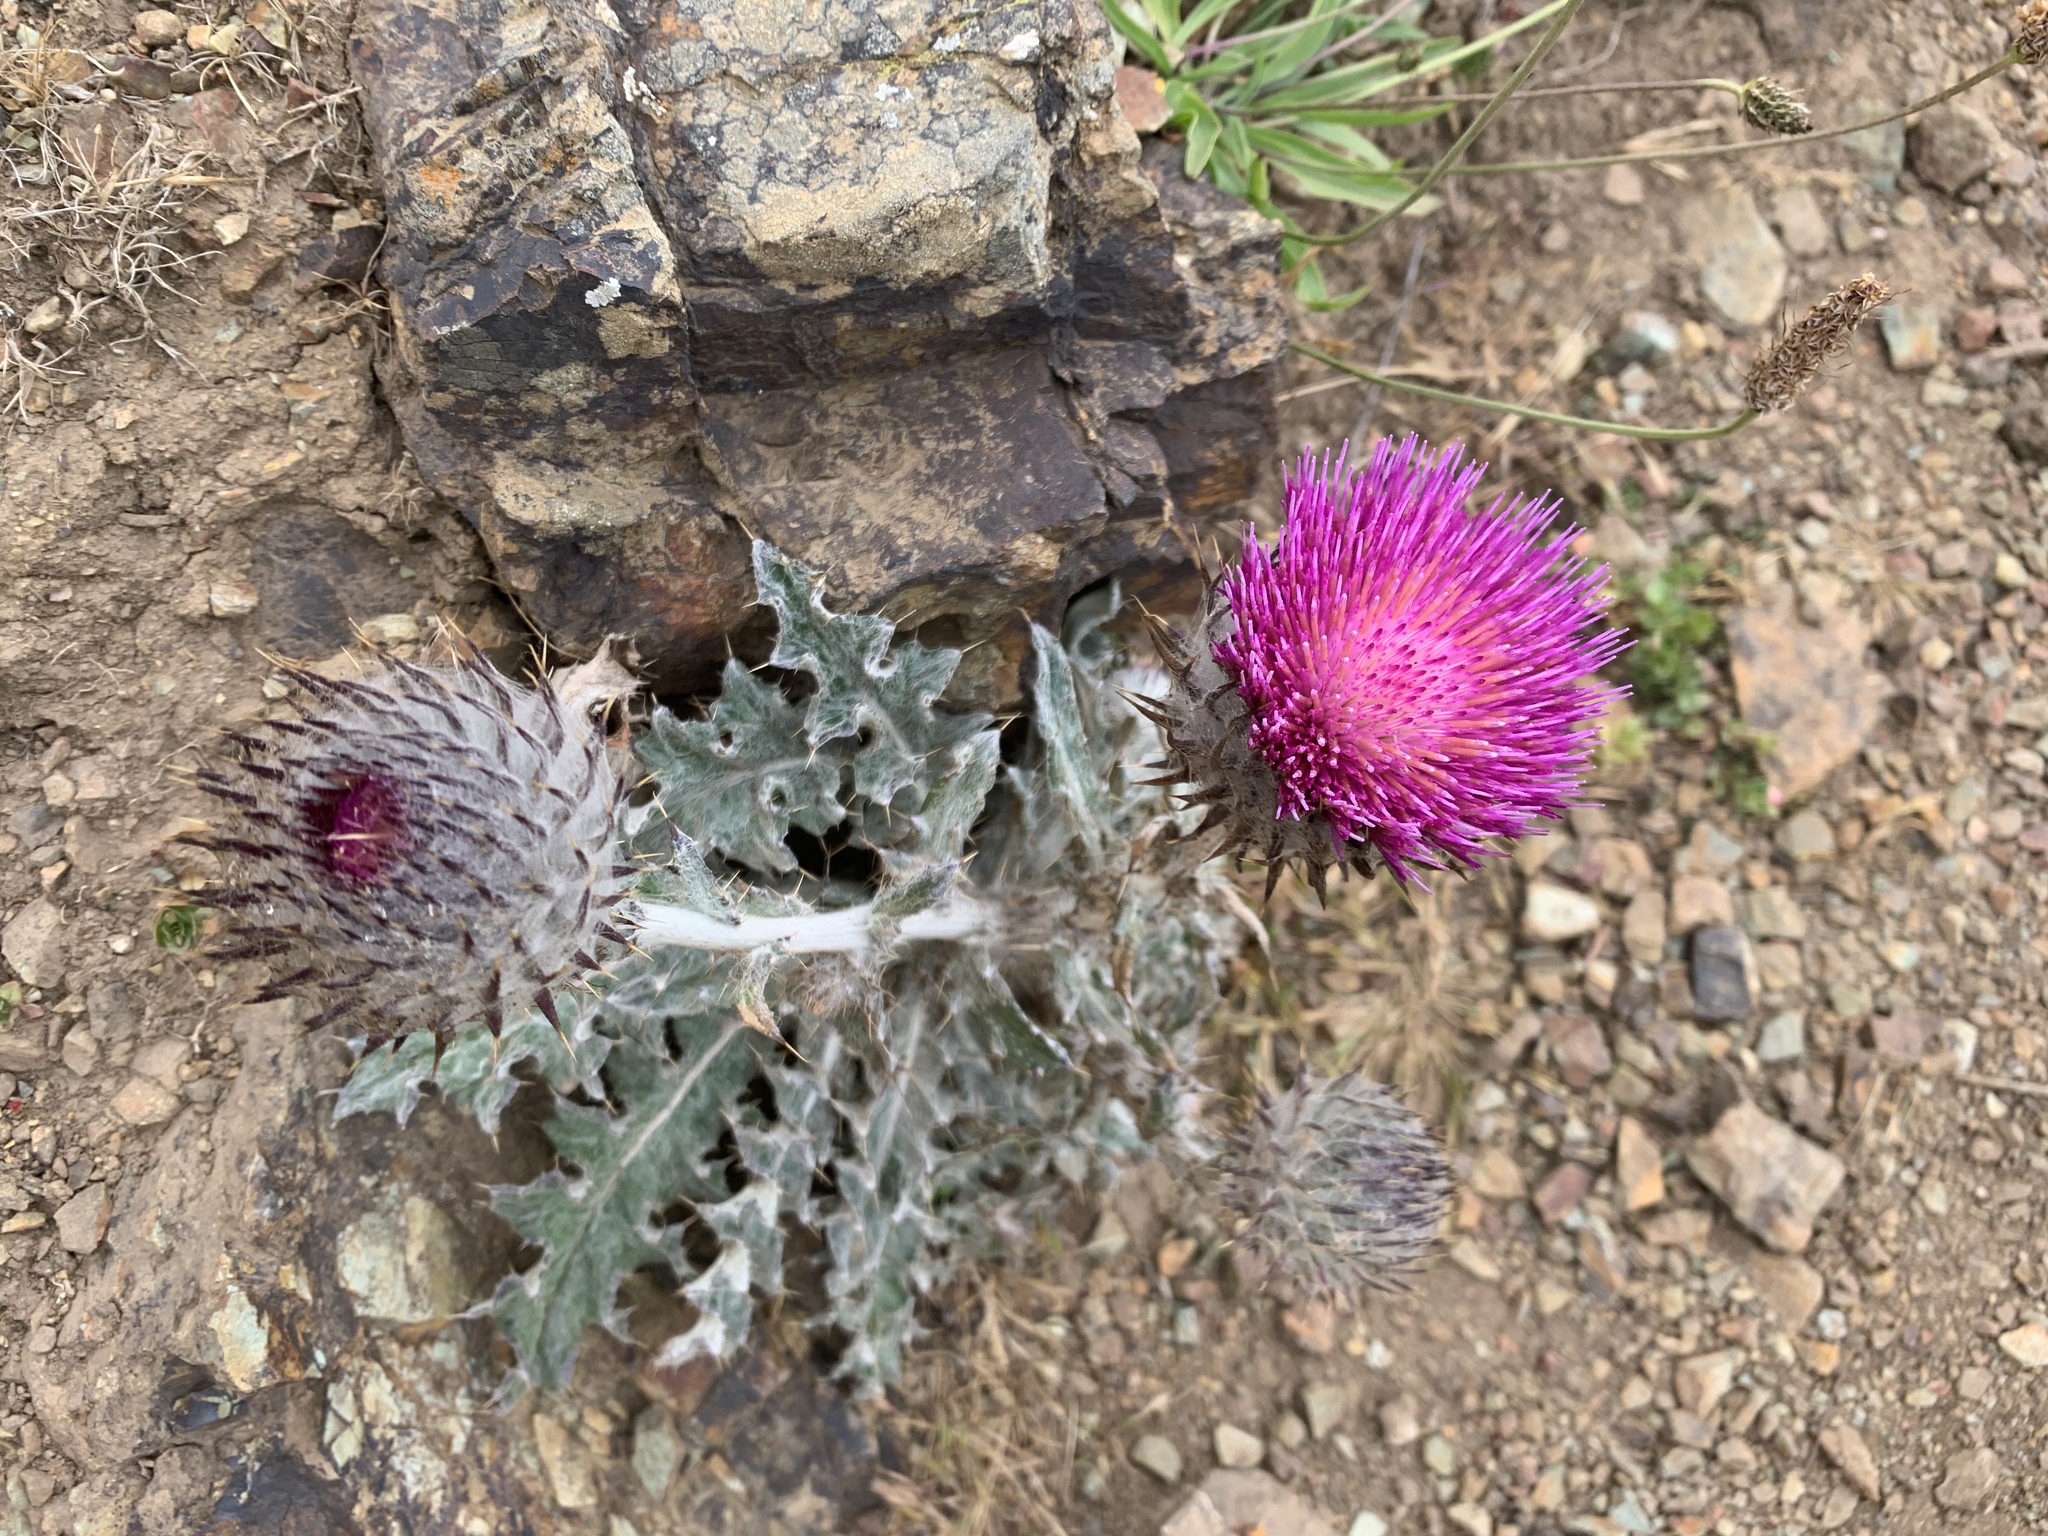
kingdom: Plantae
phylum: Tracheophyta
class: Magnoliopsida
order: Asterales
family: Asteraceae
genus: Cirsium
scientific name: Cirsium occidentale
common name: Western thistle
